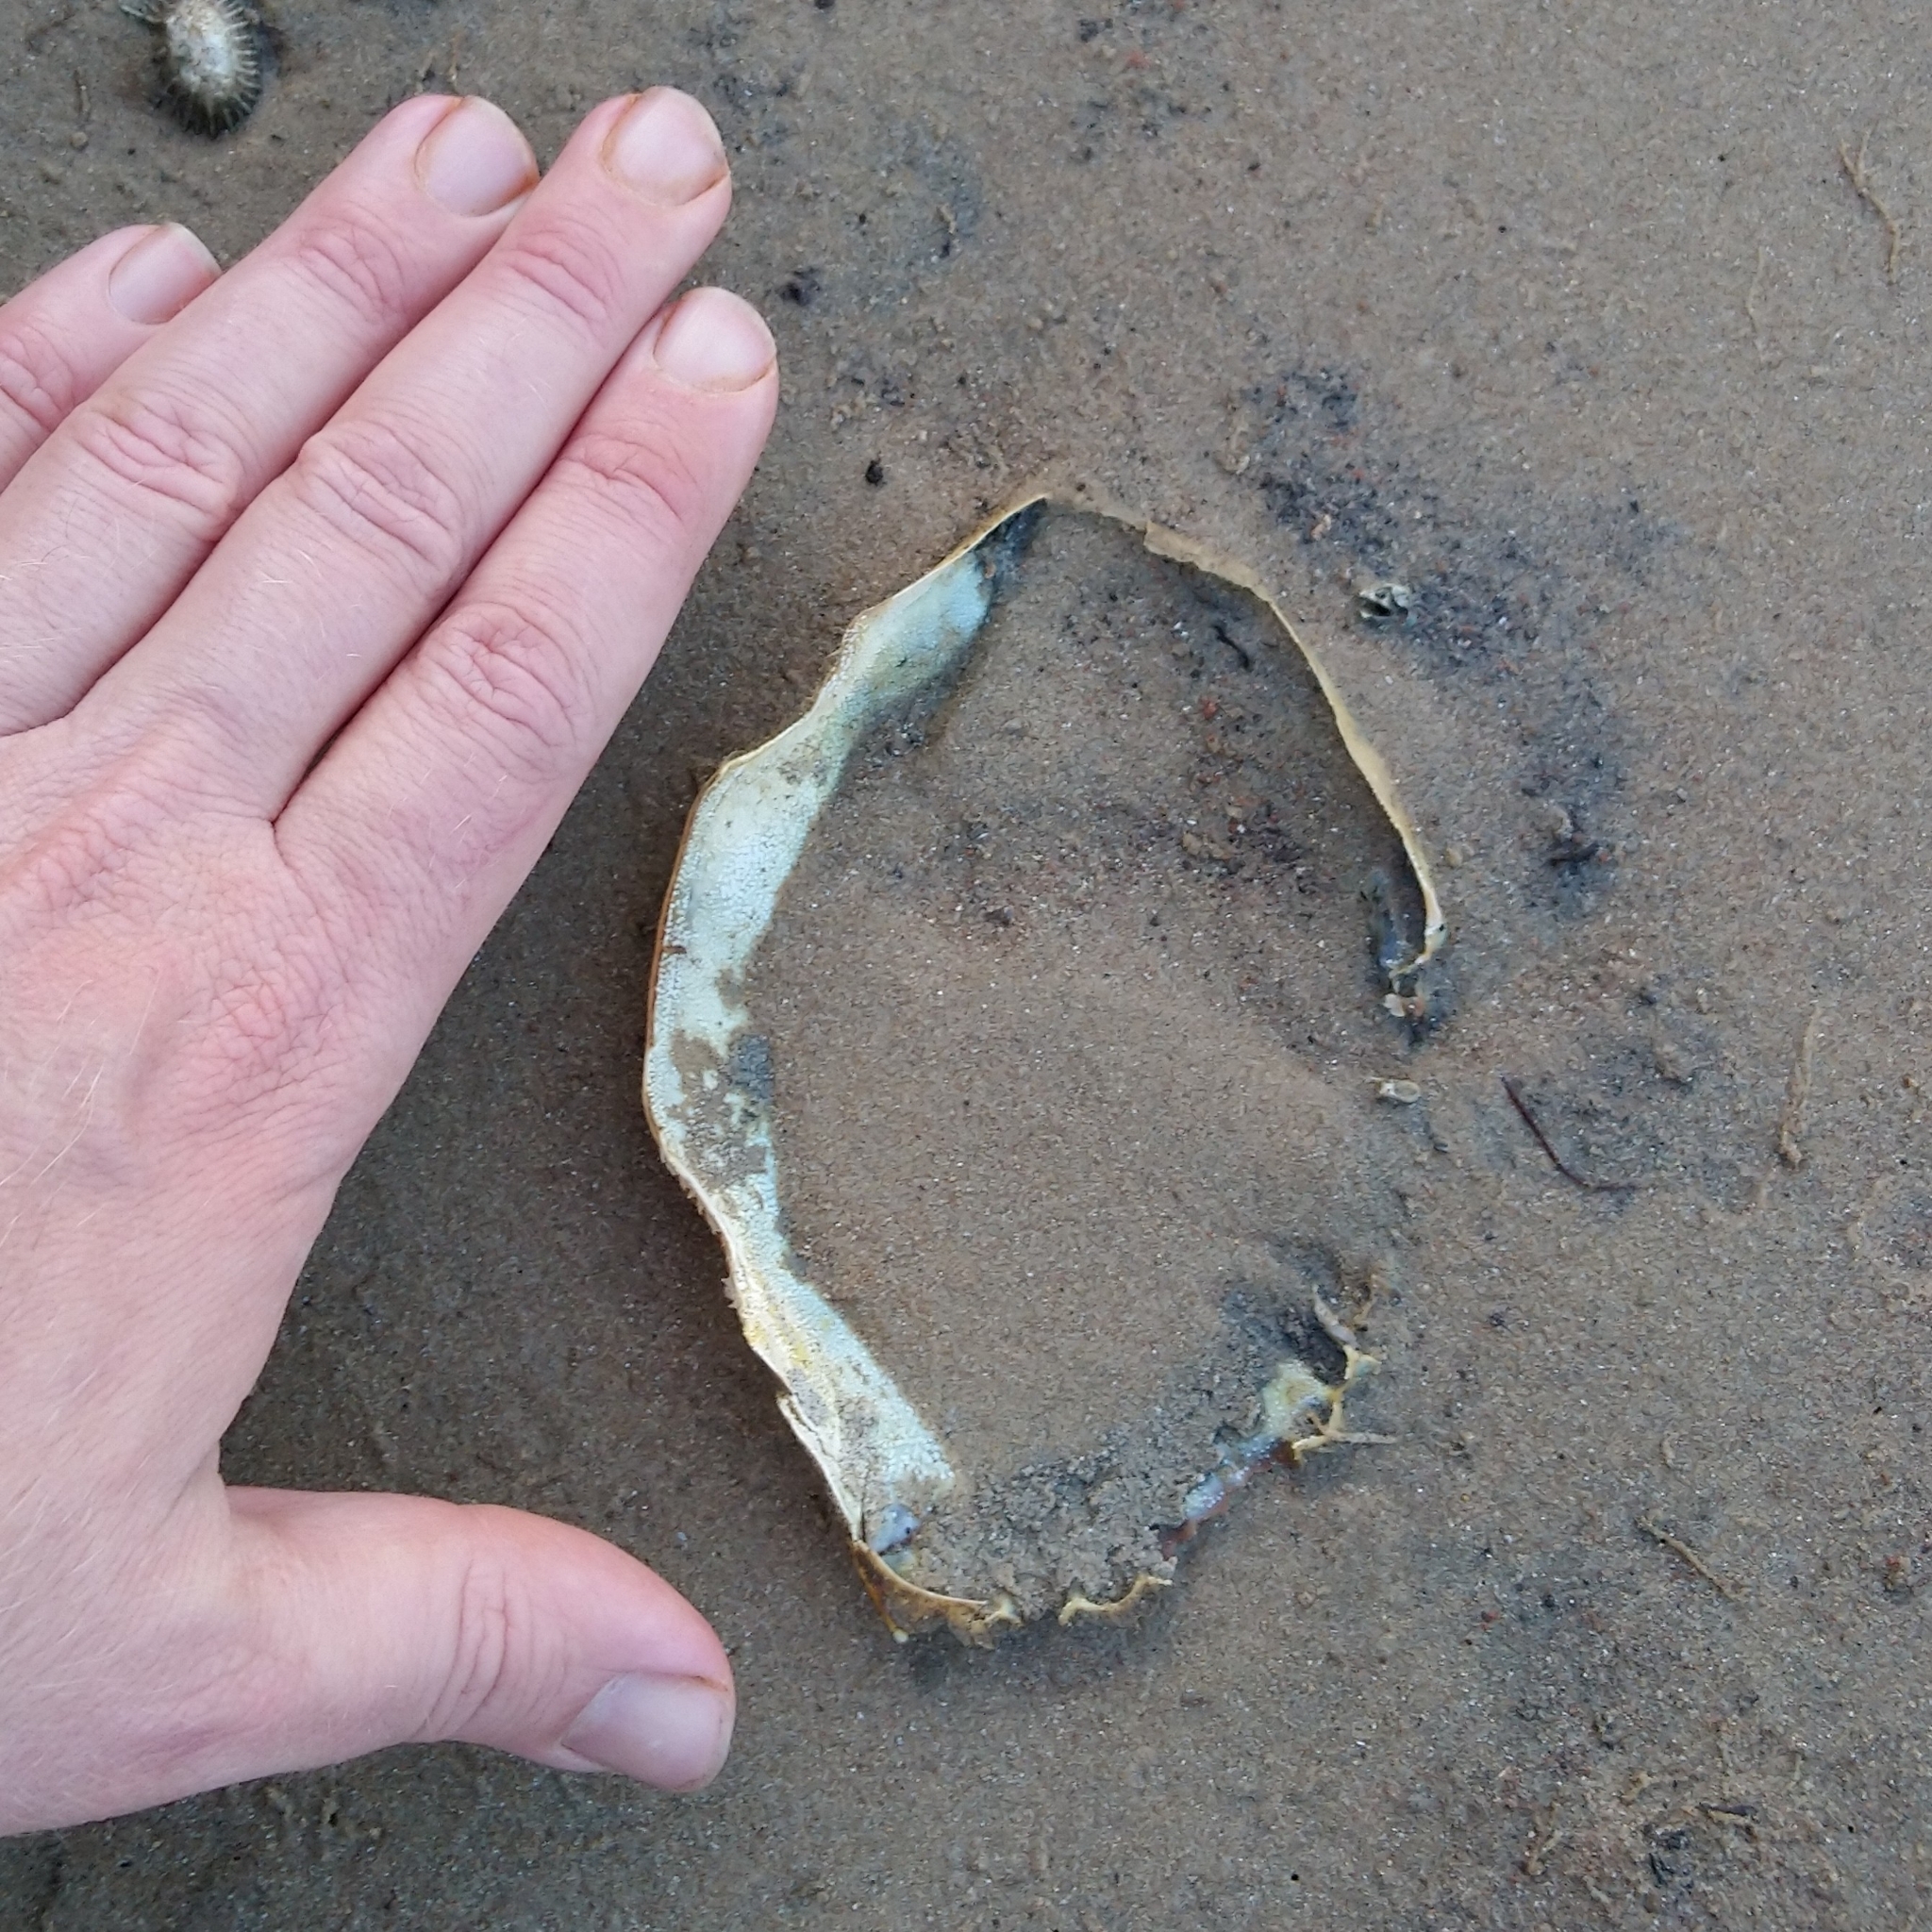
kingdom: Animalia
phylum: Arthropoda
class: Malacostraca
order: Decapoda
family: Portunidae
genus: Scylla
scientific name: Scylla serrata
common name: Giant mud crab
